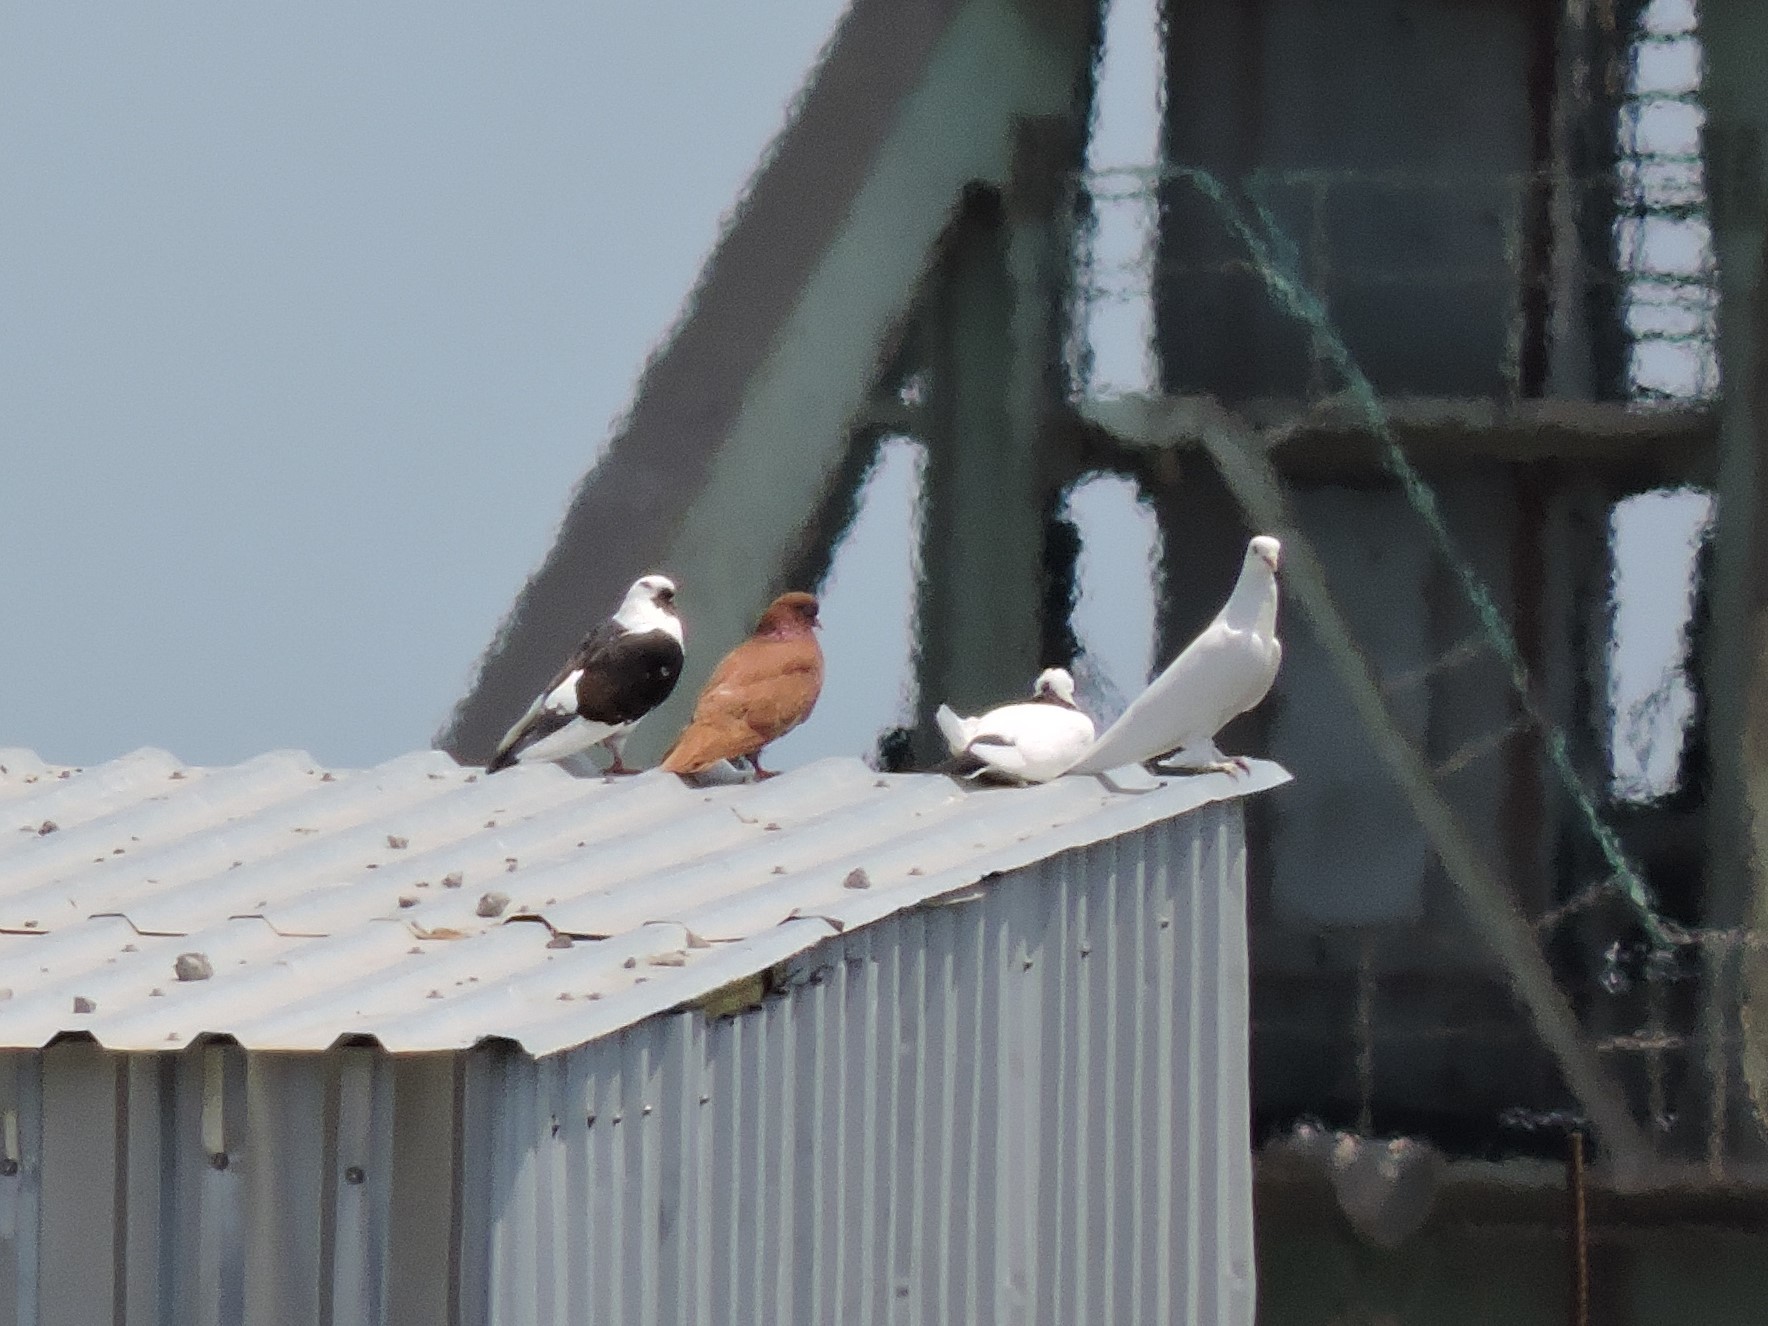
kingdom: Animalia
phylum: Chordata
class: Aves
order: Columbiformes
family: Columbidae
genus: Columba
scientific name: Columba livia
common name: Rock pigeon
